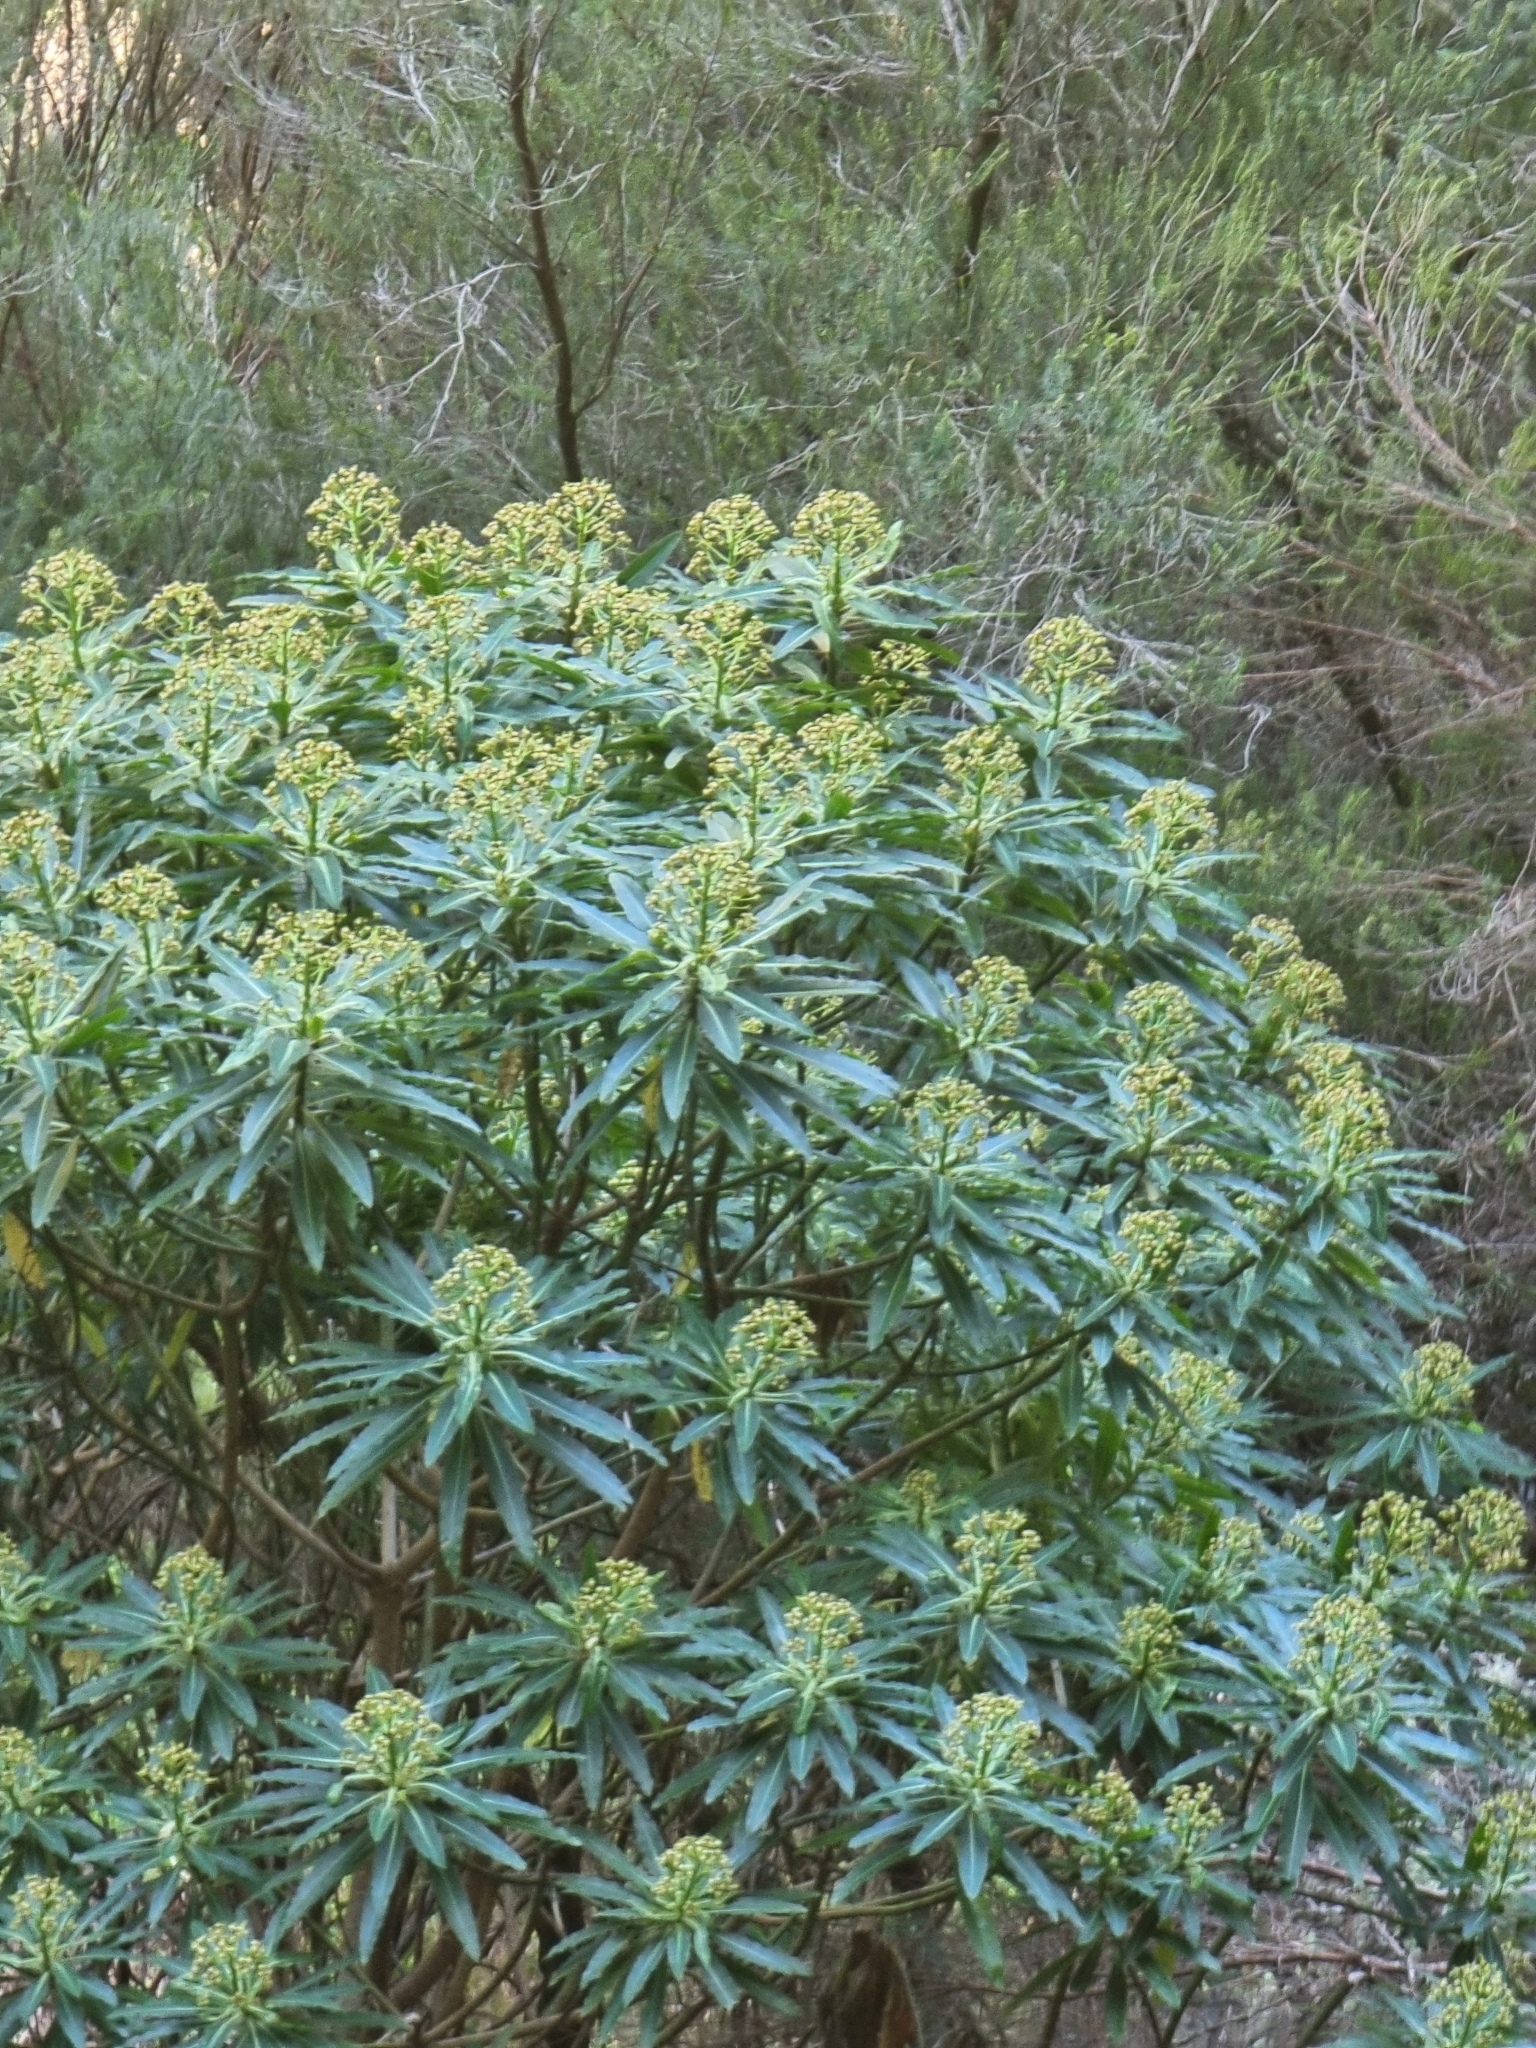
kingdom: Plantae
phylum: Tracheophyta
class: Magnoliopsida
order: Malpighiales
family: Euphorbiaceae
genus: Euphorbia
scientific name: Euphorbia mellifera
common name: Canary spurge
